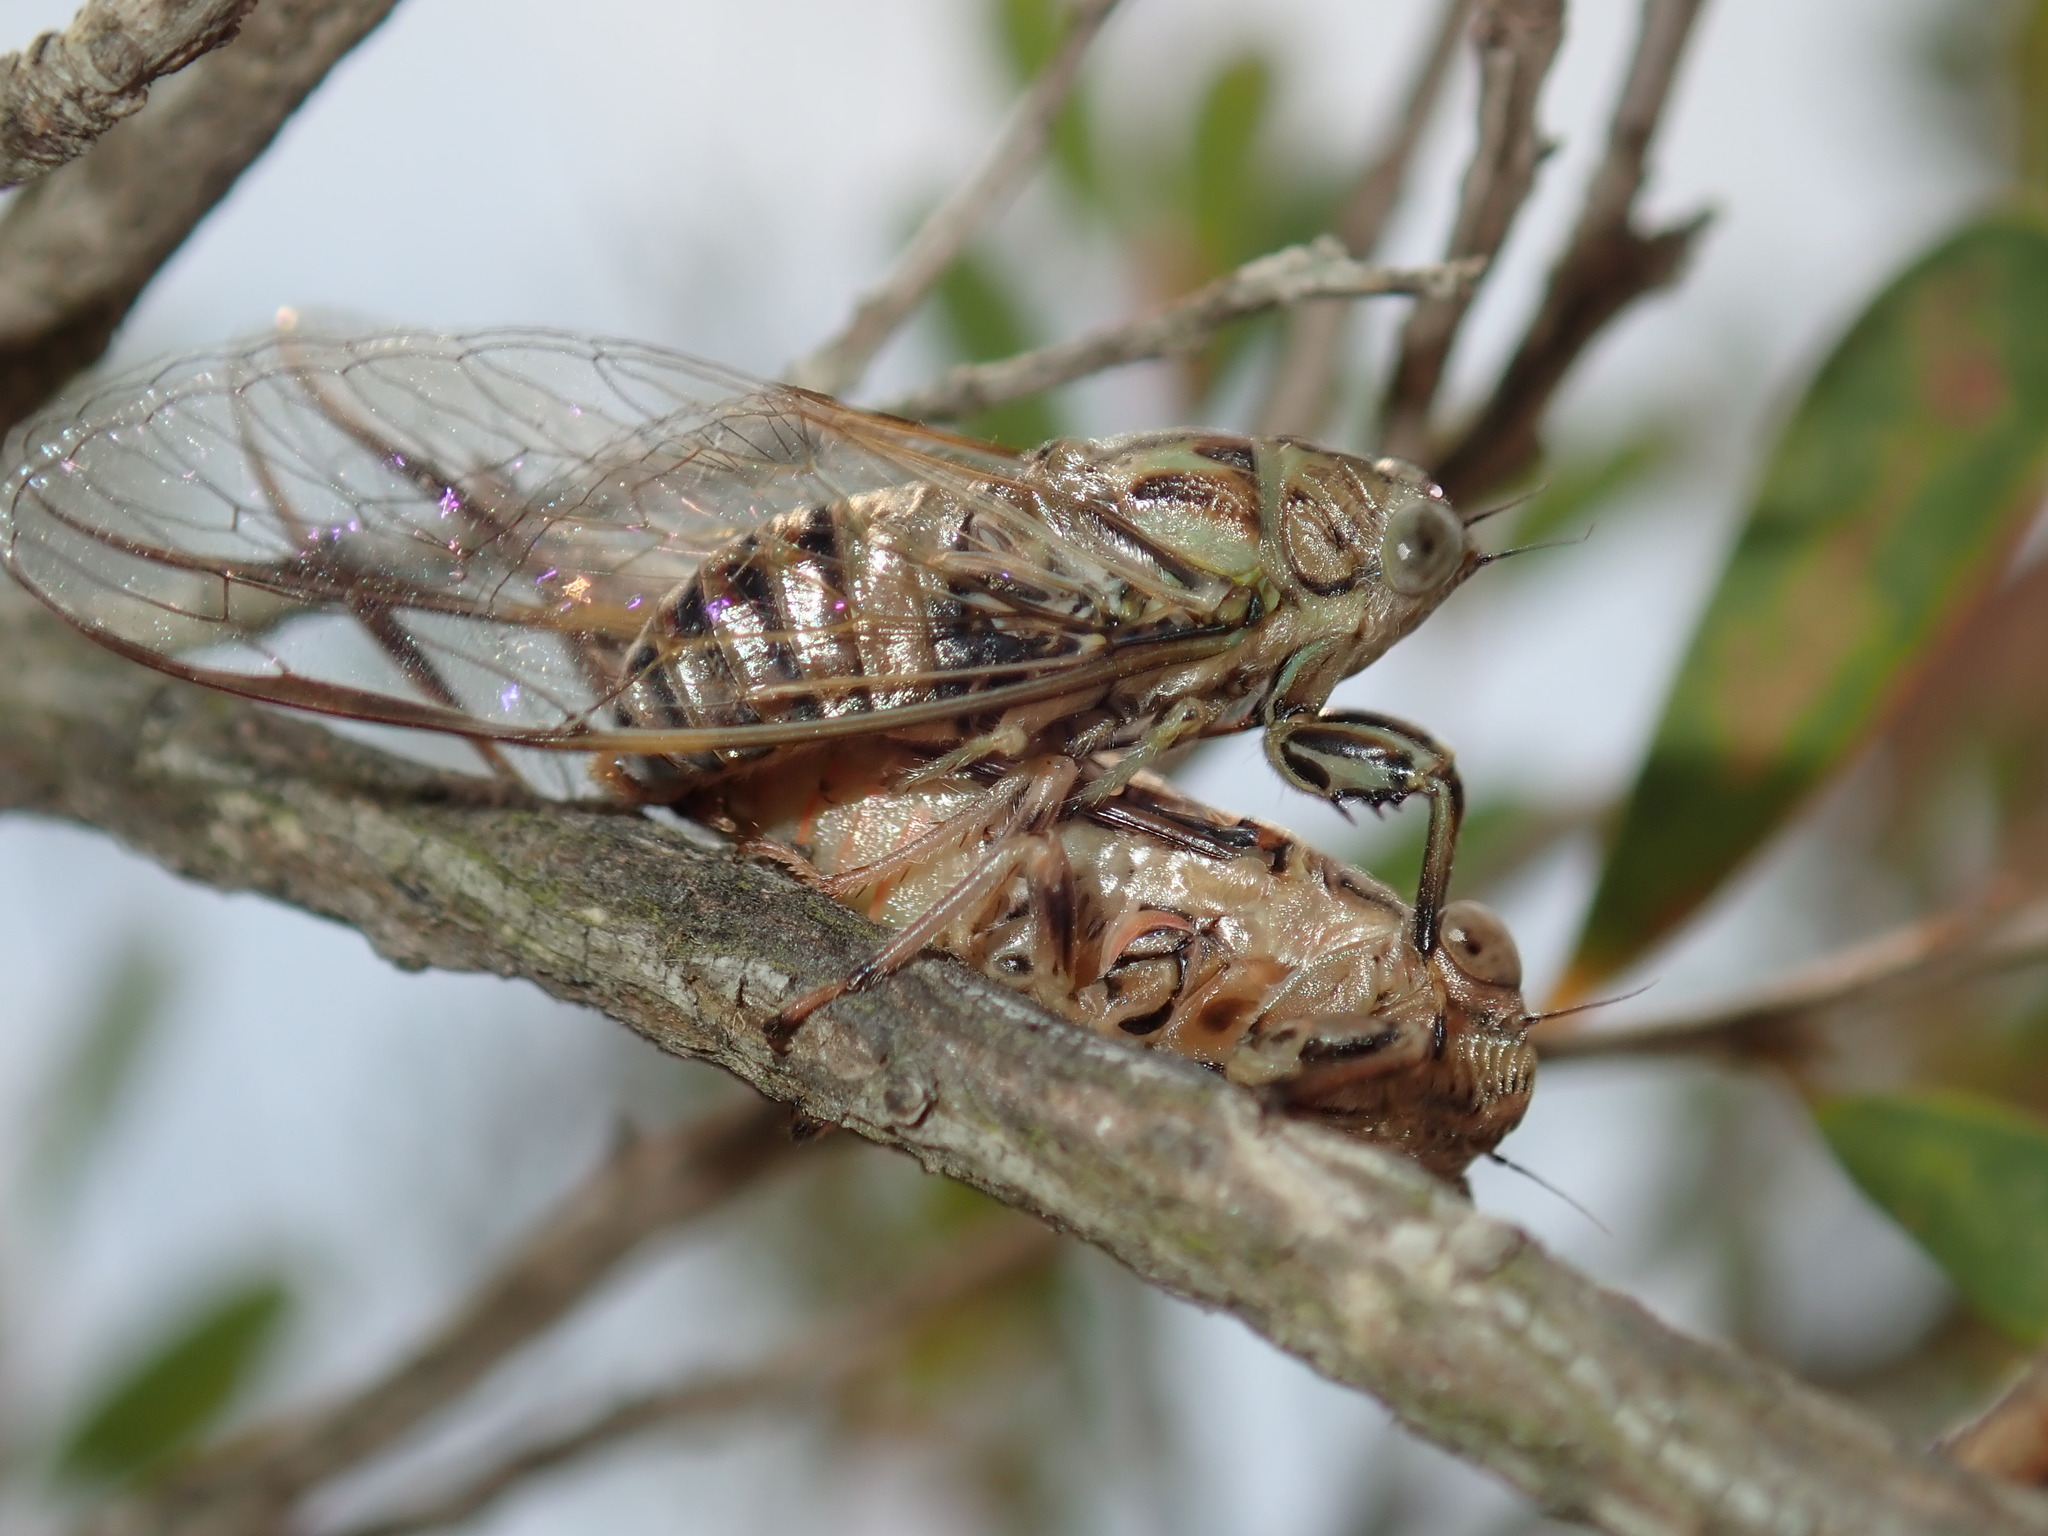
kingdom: Animalia
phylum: Arthropoda
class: Insecta
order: Hemiptera
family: Cicadidae
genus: Telmapsalta
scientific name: Telmapsalta hackeri
